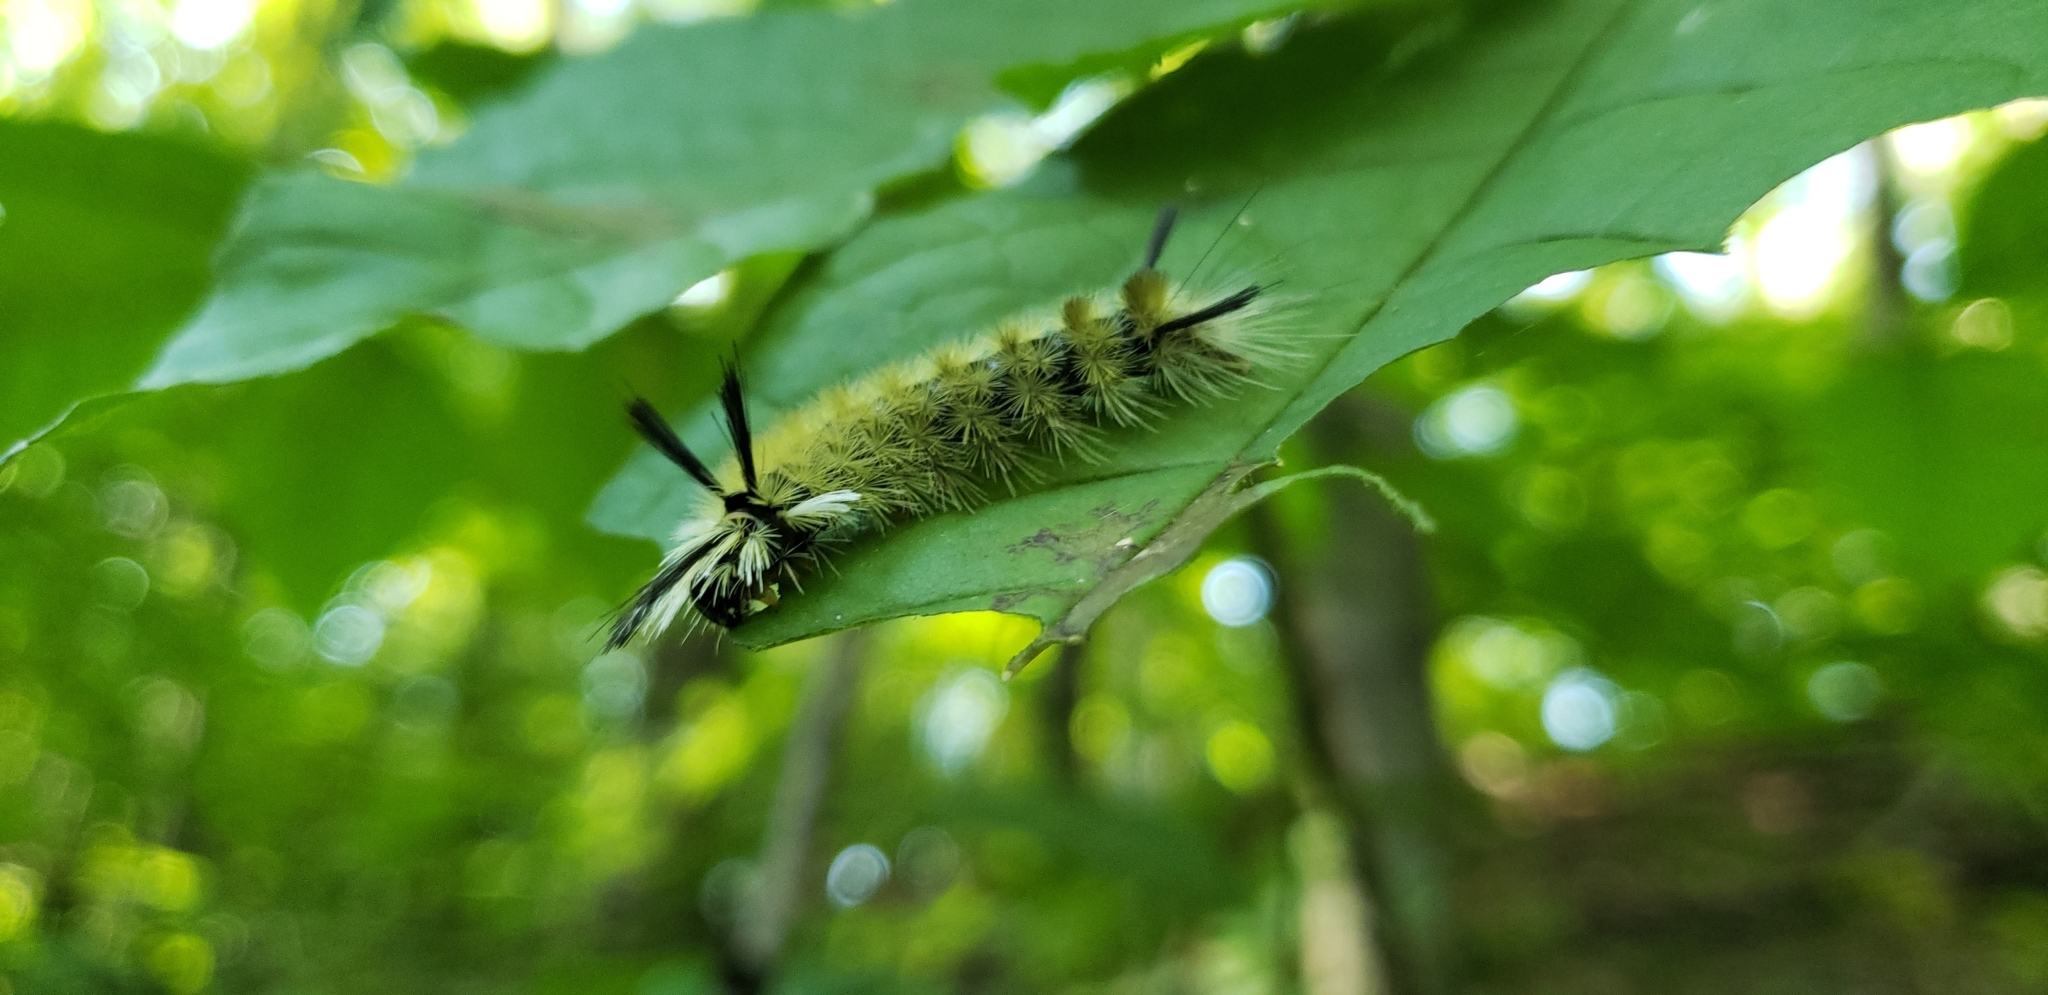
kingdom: Animalia
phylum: Arthropoda
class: Insecta
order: Lepidoptera
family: Erebidae
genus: Halysidota
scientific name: Halysidota tessellaris
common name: Banded tussock moth
